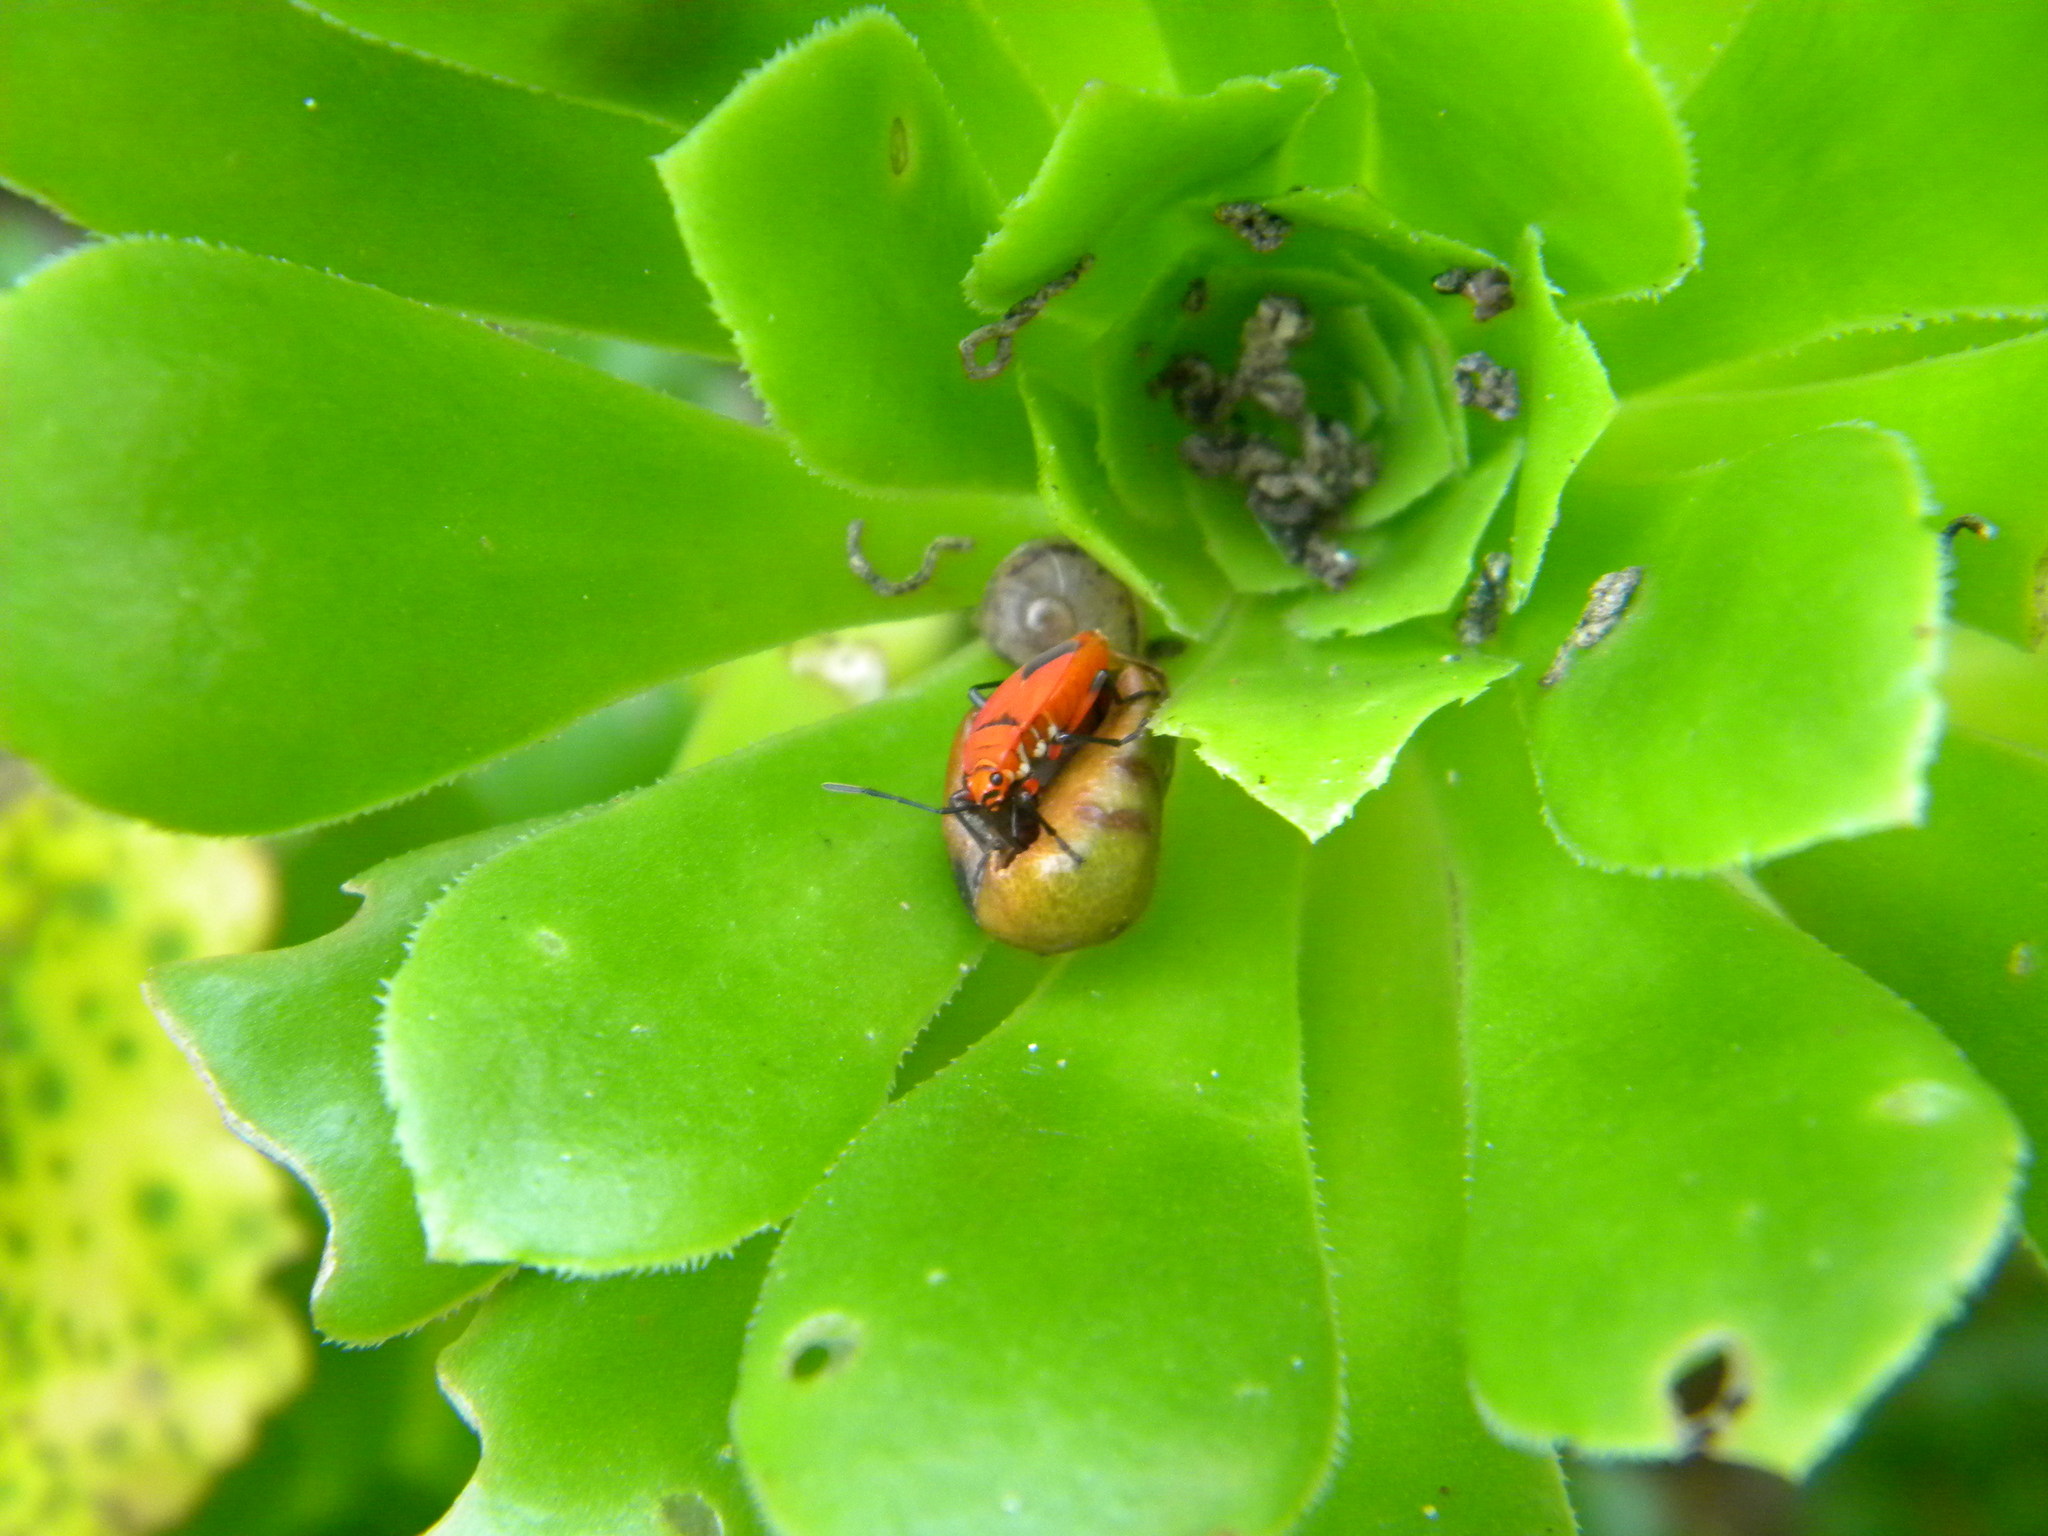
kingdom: Animalia
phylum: Arthropoda
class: Insecta
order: Hemiptera
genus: Cenaeus
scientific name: Cenaeus
